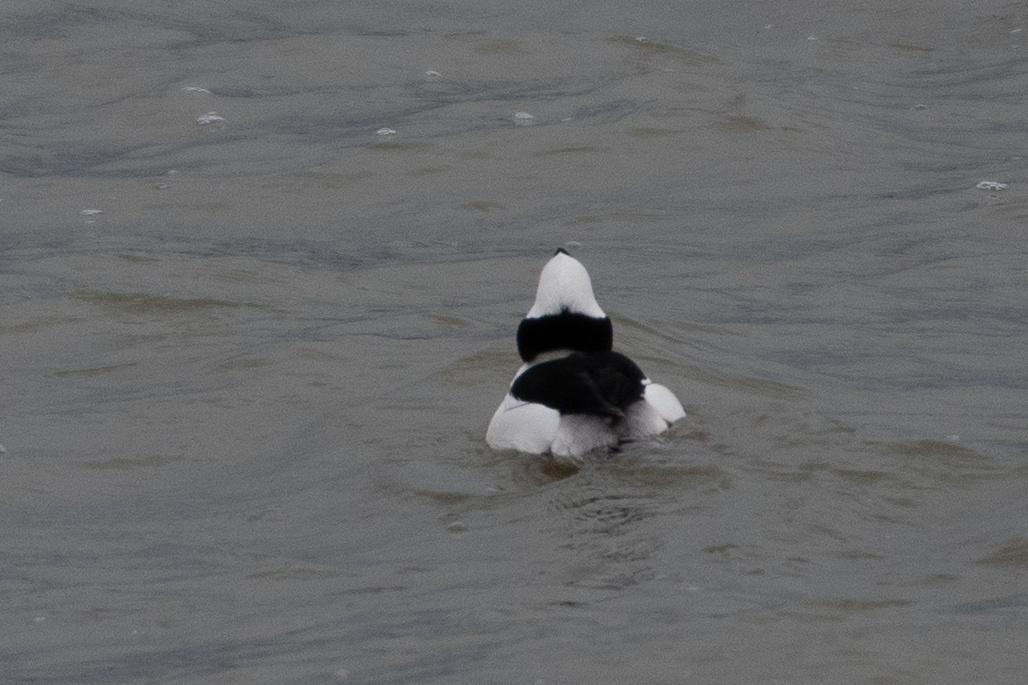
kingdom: Animalia
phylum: Chordata
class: Aves
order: Anseriformes
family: Anatidae
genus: Bucephala
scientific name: Bucephala albeola
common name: Bufflehead
